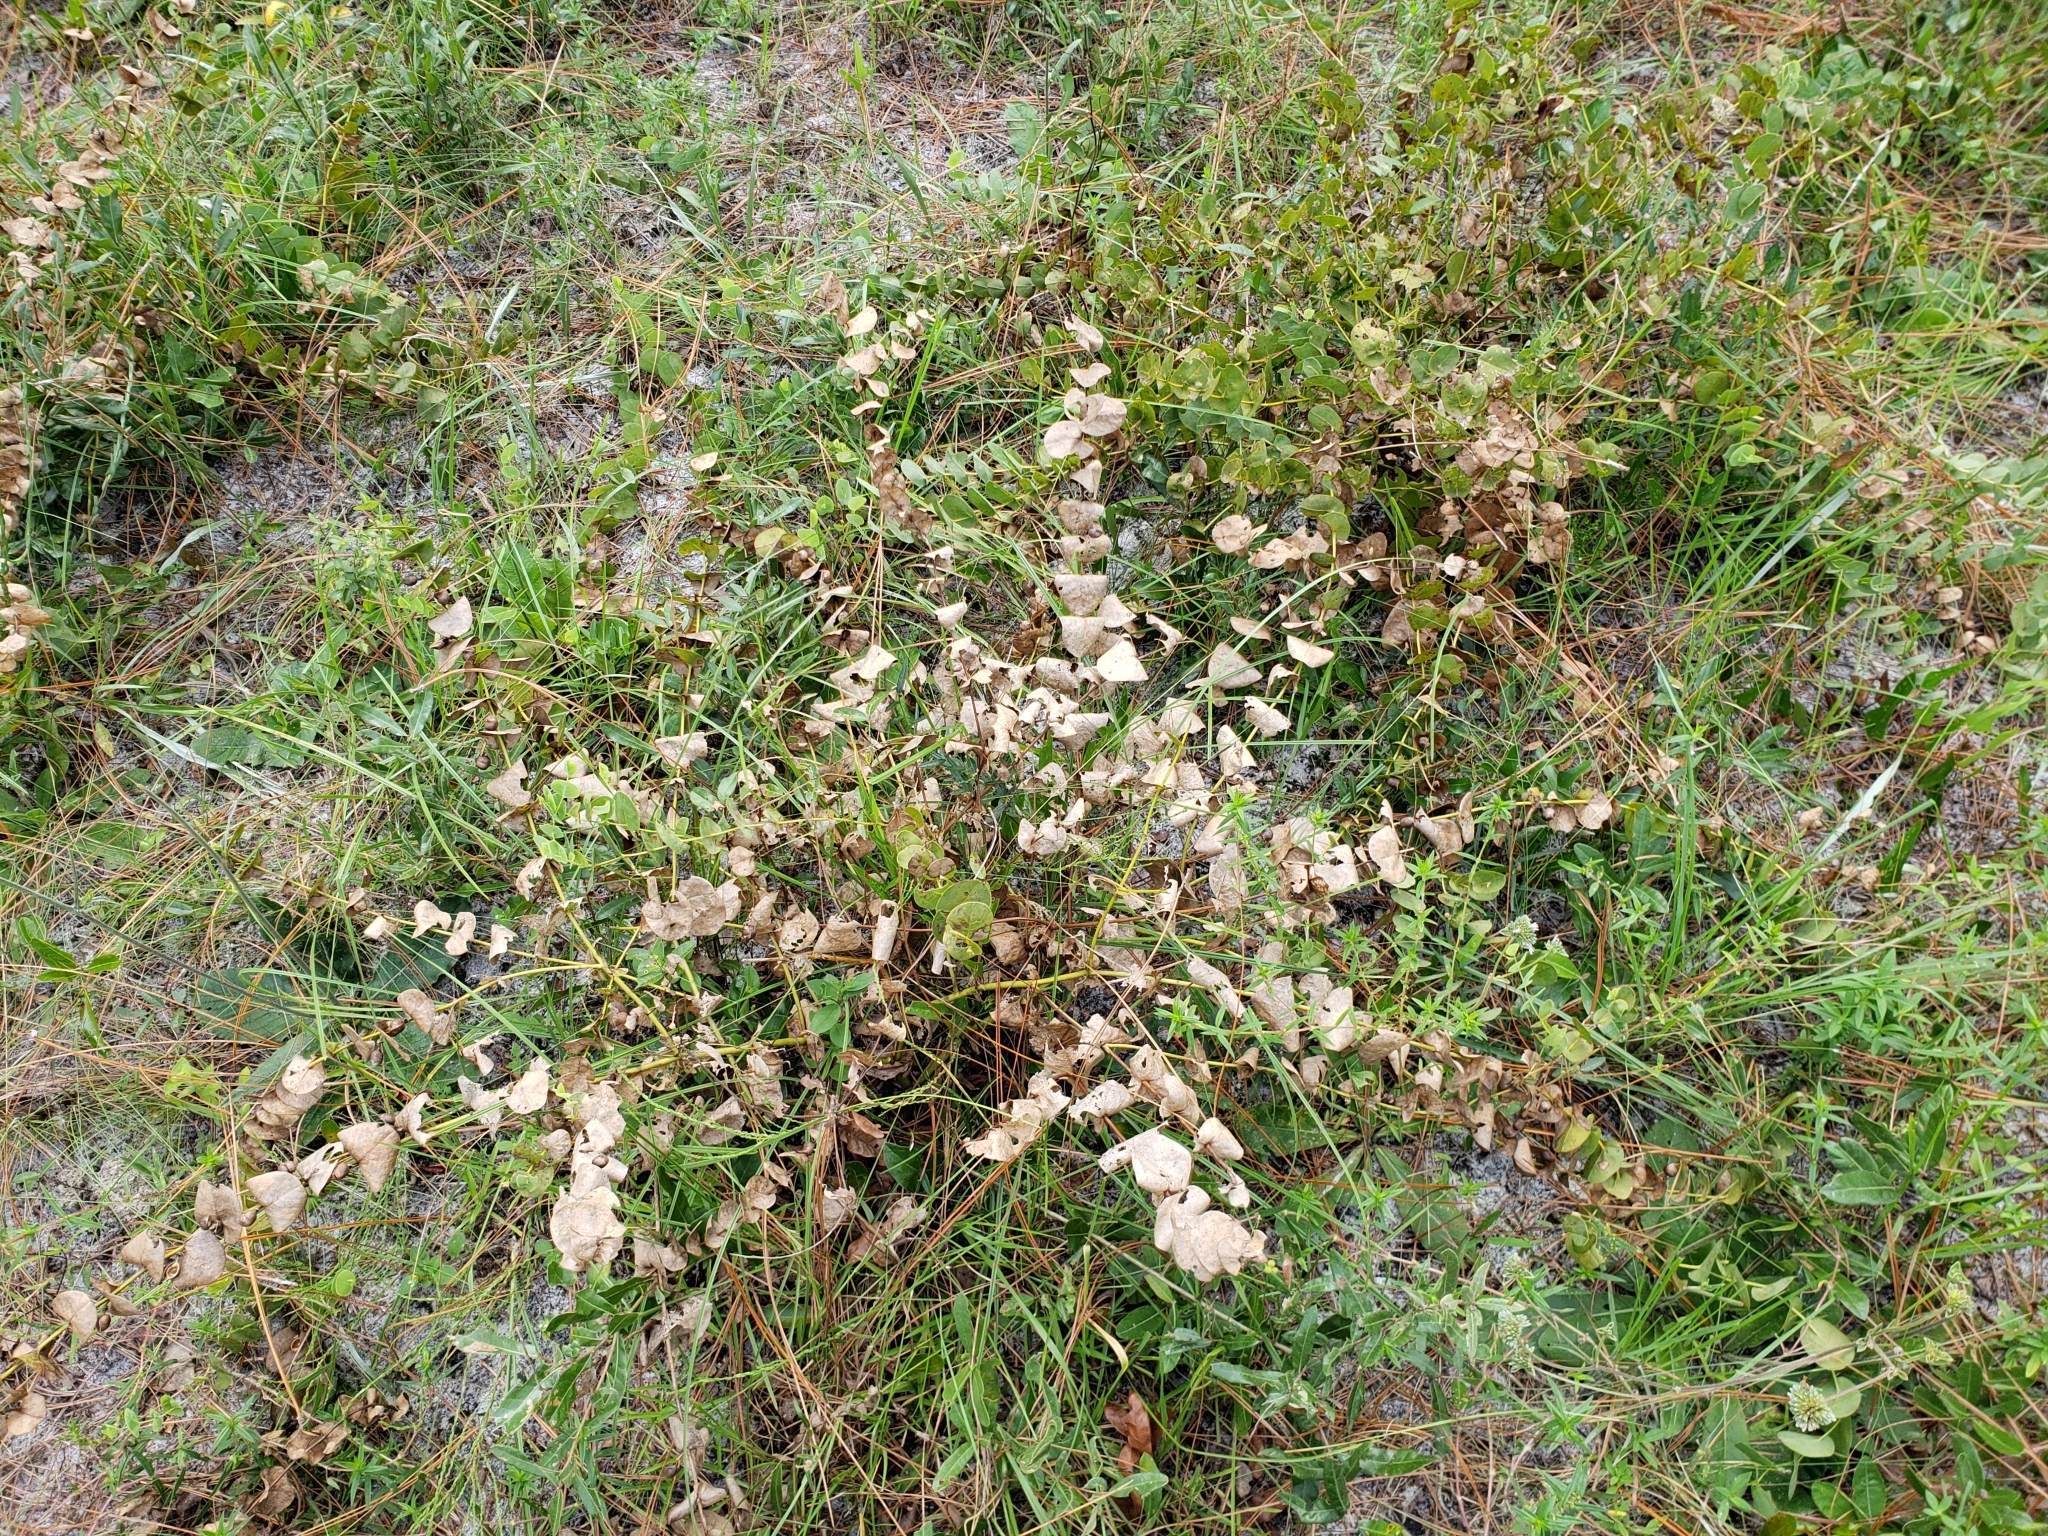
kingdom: Plantae
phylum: Tracheophyta
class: Magnoliopsida
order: Fabales
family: Fabaceae
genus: Baptisia
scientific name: Baptisia perfoliata
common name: Catbells
